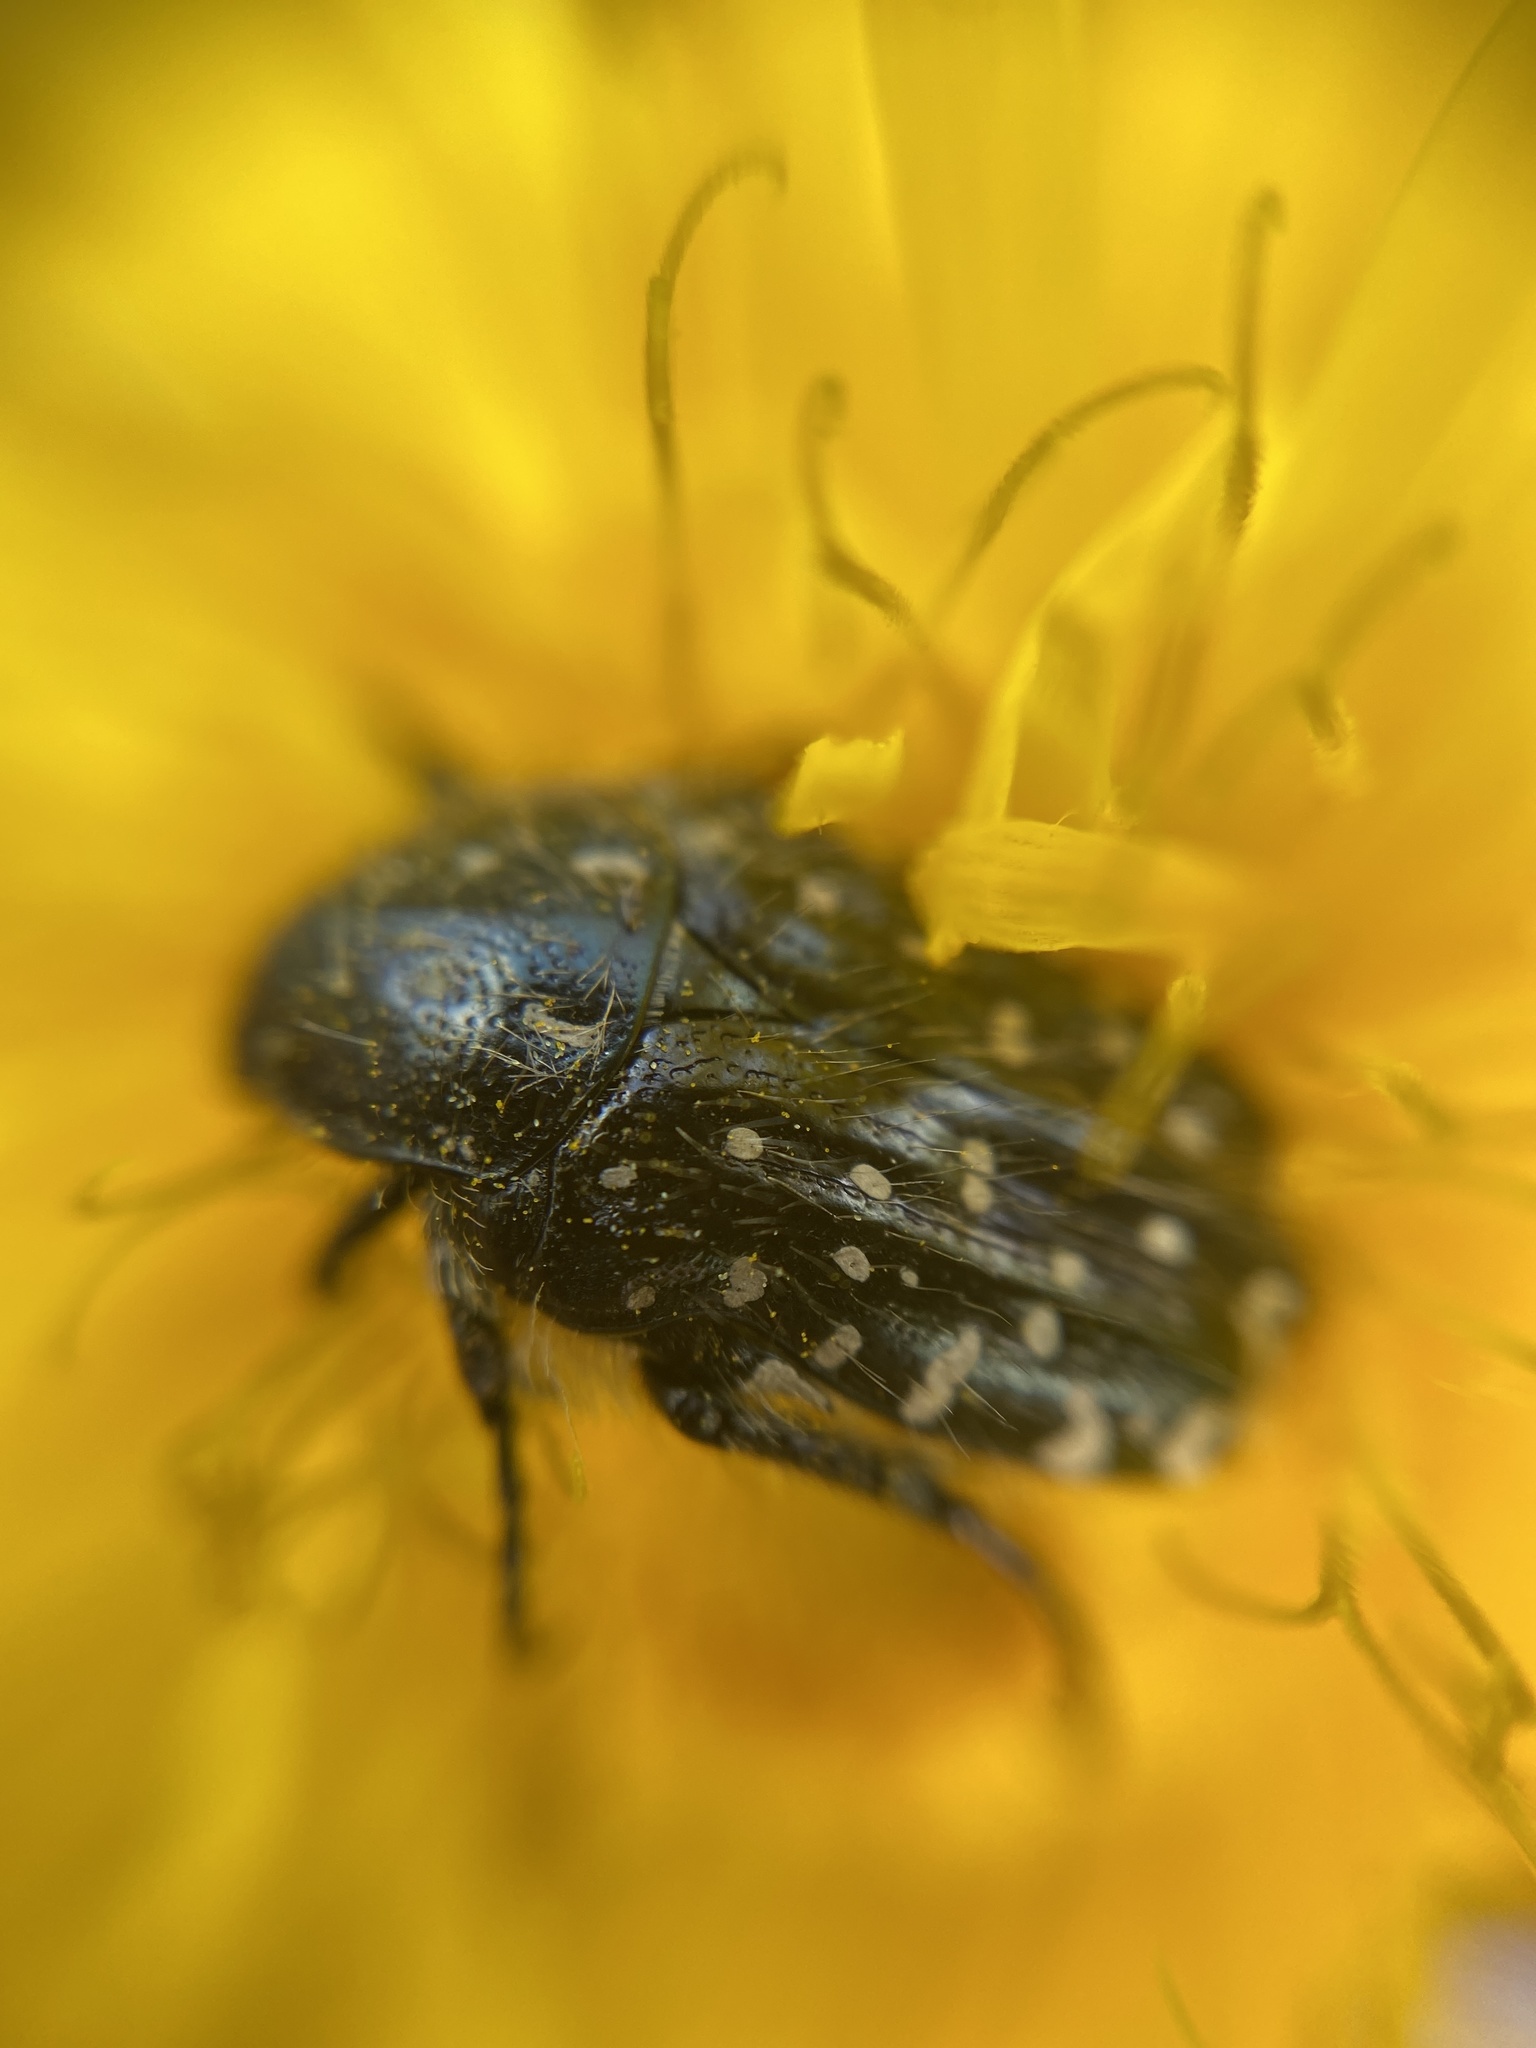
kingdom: Animalia
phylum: Arthropoda
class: Insecta
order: Coleoptera
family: Scarabaeidae
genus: Oxythyrea
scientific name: Oxythyrea funesta
